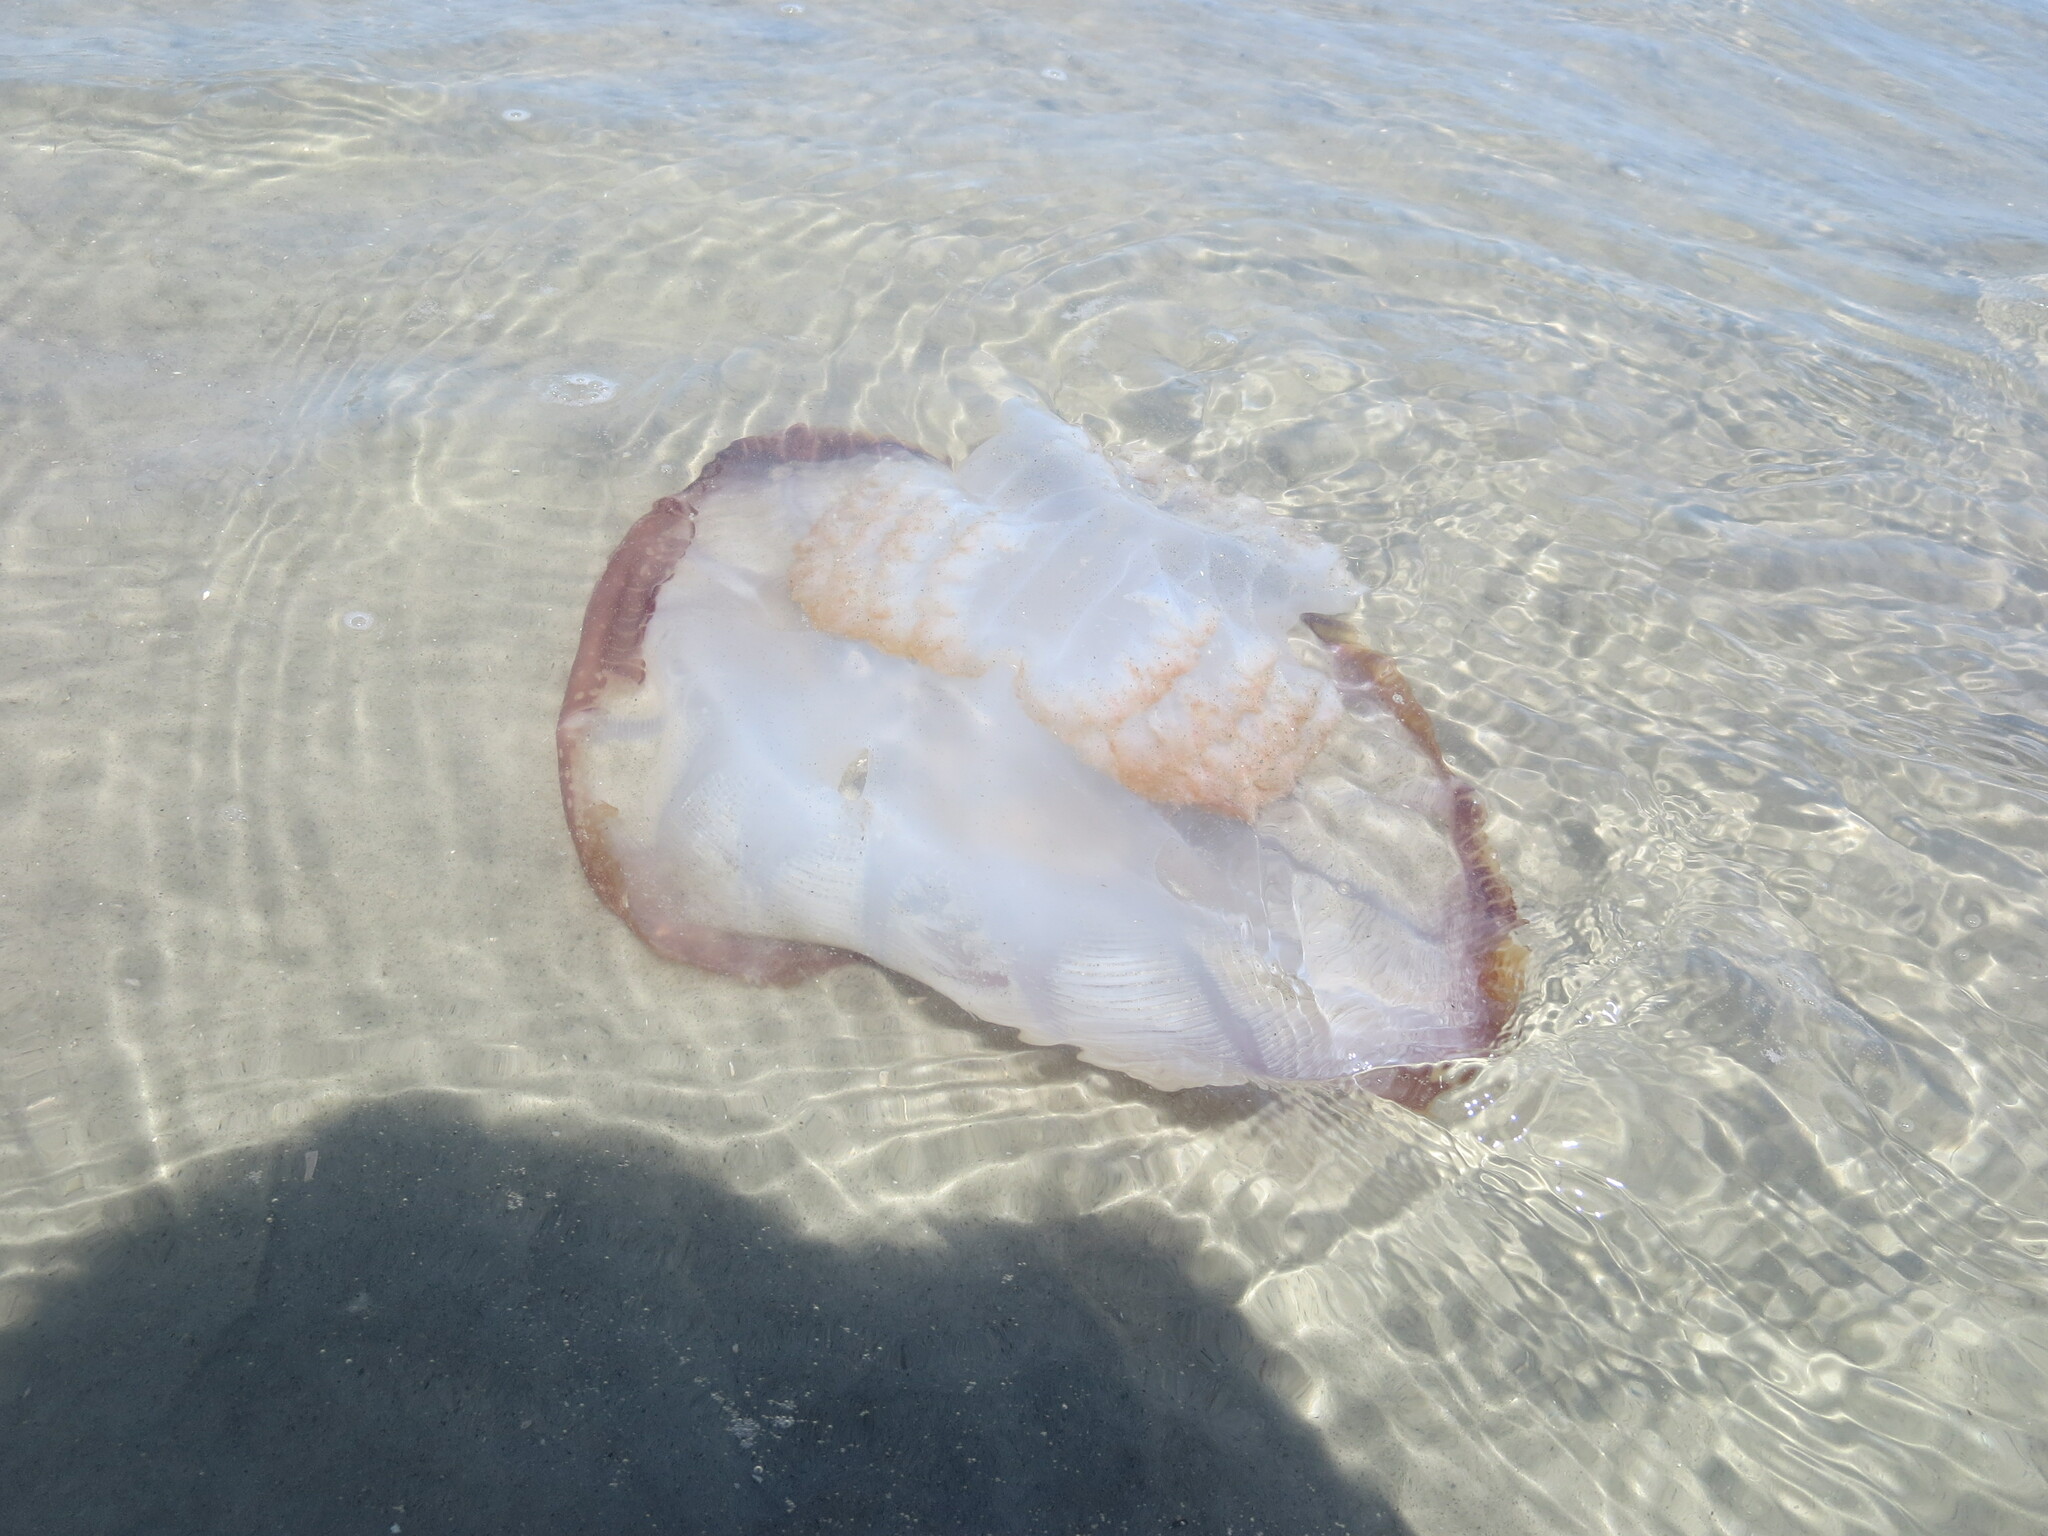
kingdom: Animalia
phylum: Cnidaria
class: Scyphozoa
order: Rhizostomeae
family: Stomolophidae
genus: Stomolophus
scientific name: Stomolophus meleagris
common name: Cabbagehead
